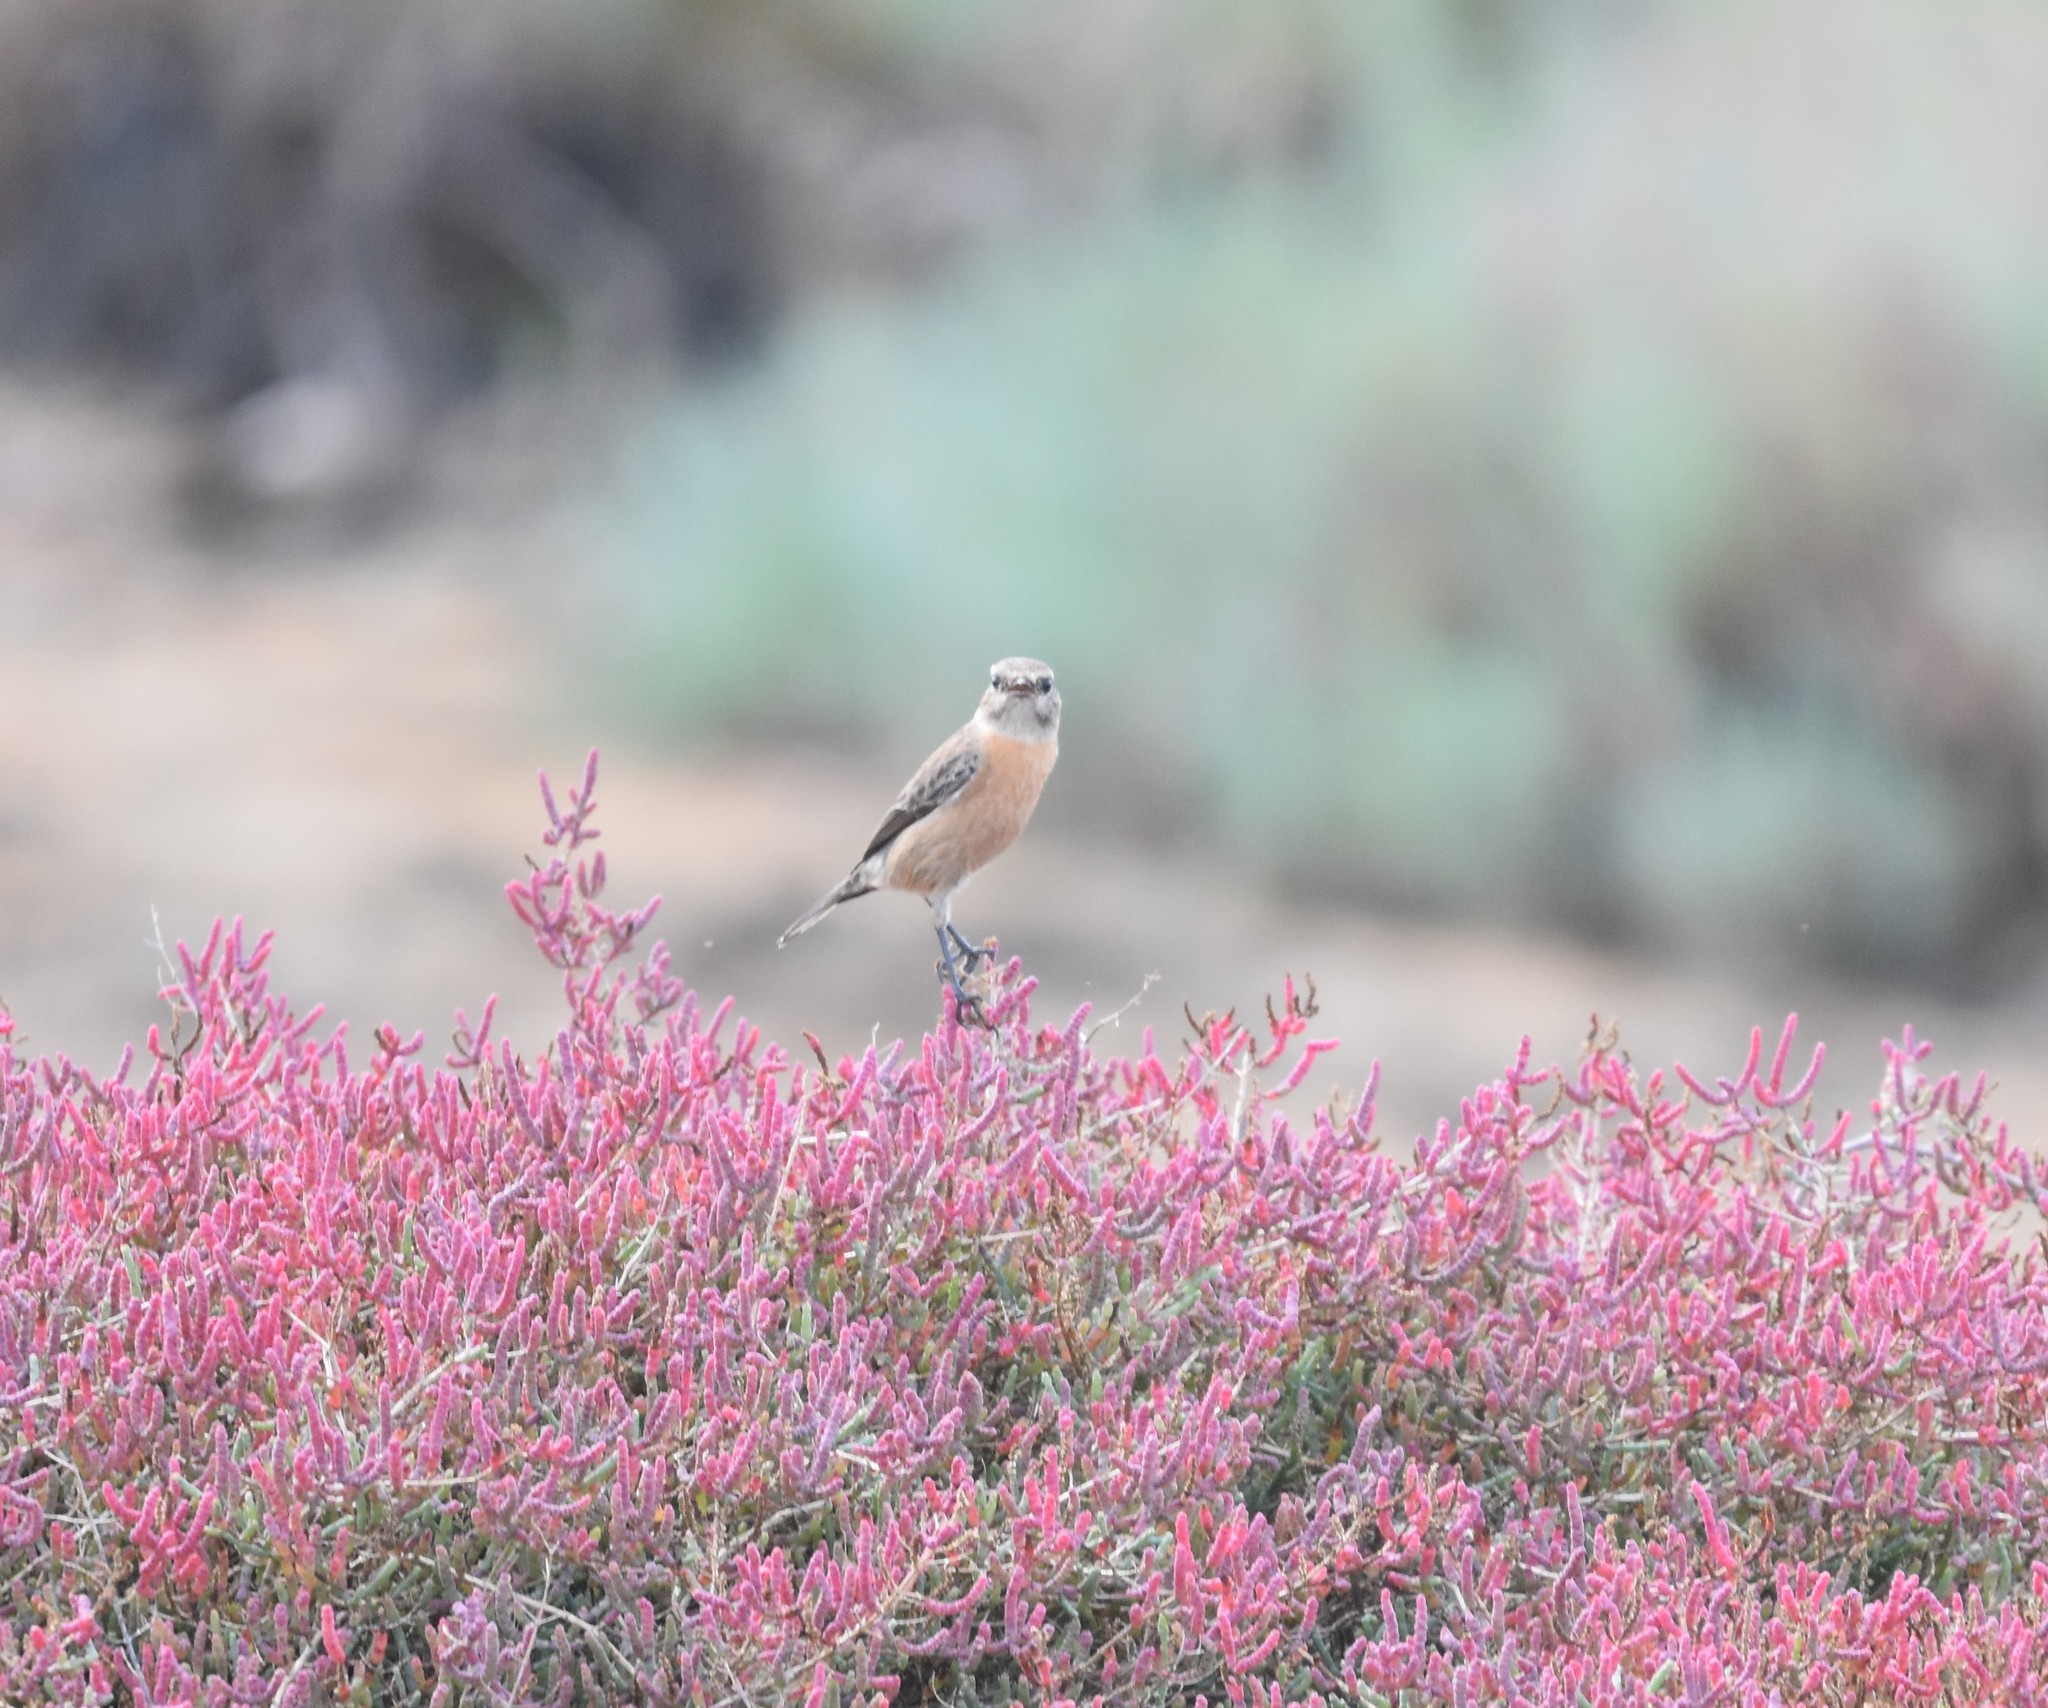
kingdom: Animalia
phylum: Chordata
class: Aves
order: Passeriformes
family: Muscicapidae
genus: Saxicola
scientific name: Saxicola torquatus
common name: African stonechat
